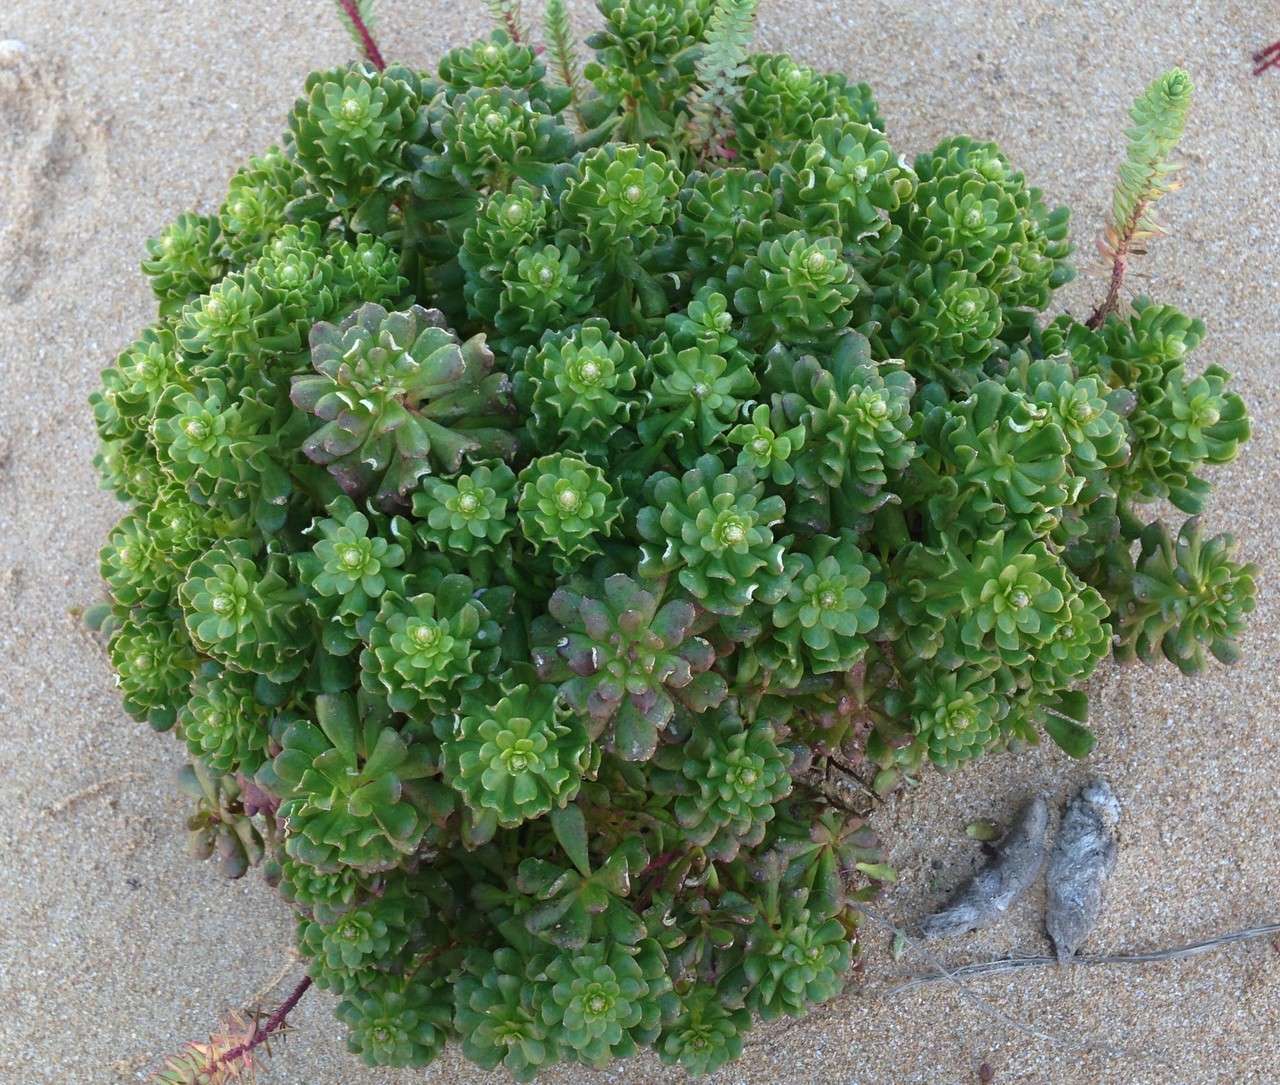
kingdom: Plantae
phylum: Tracheophyta
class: Magnoliopsida
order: Celastrales
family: Celastraceae
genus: Stackhousia
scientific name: Stackhousia spathulata
